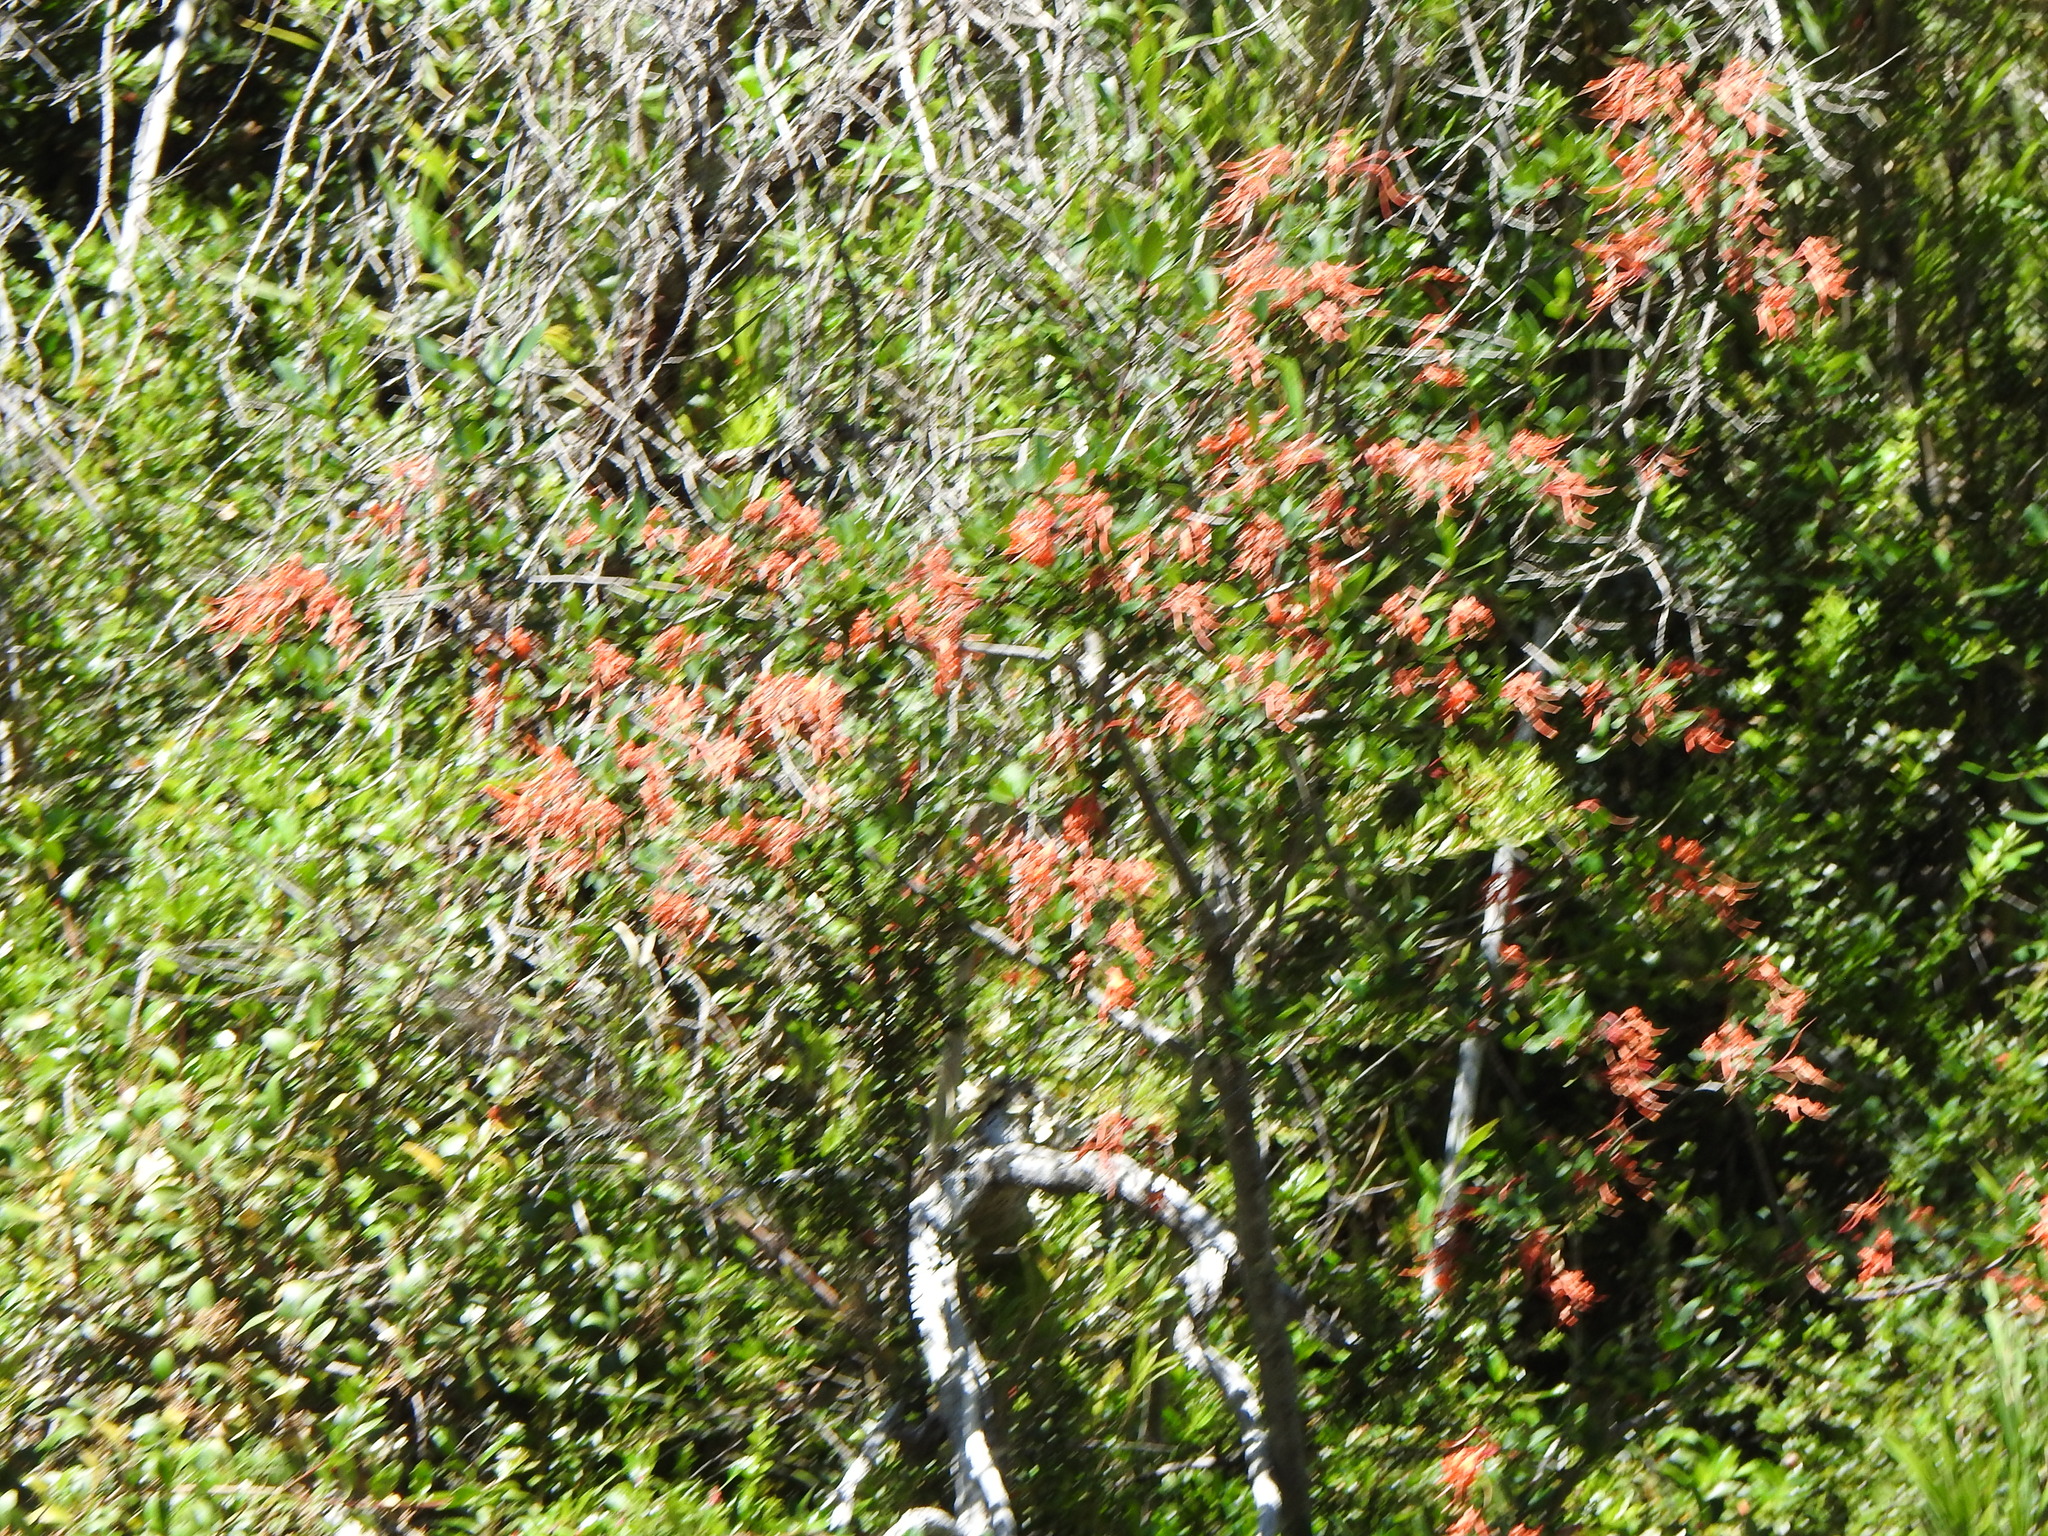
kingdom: Plantae
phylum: Tracheophyta
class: Magnoliopsida
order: Proteales
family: Proteaceae
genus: Embothrium
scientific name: Embothrium coccineum
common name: Chilean firebush
